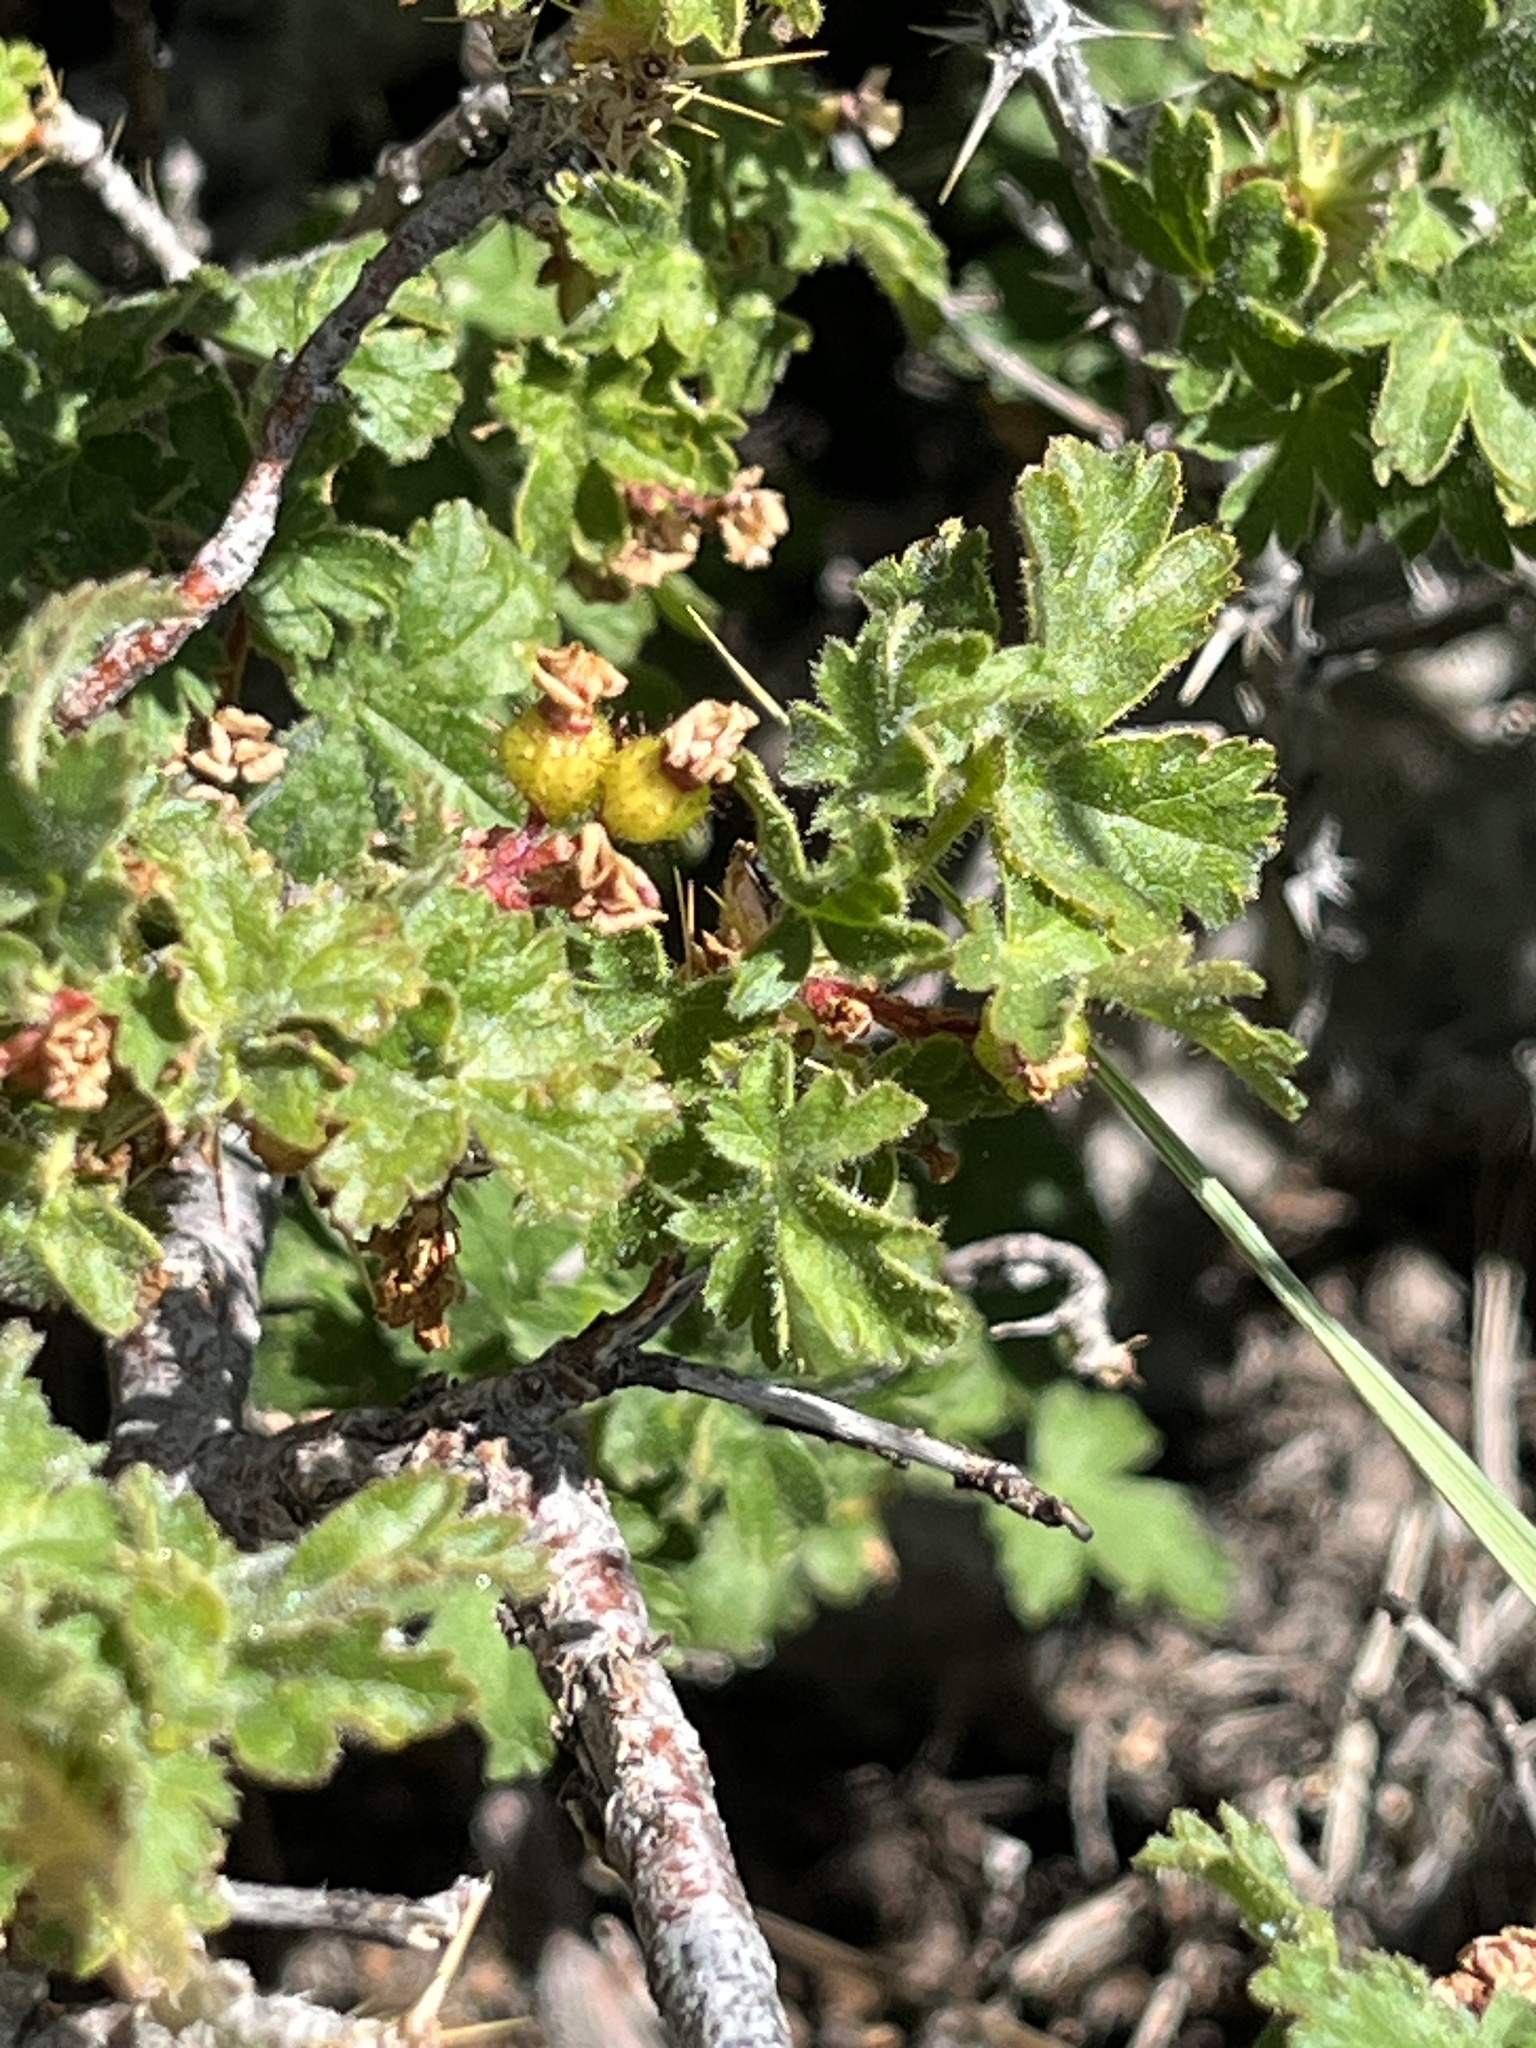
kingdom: Plantae
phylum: Tracheophyta
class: Magnoliopsida
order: Saxifragales
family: Grossulariaceae
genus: Ribes
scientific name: Ribes montigenum
